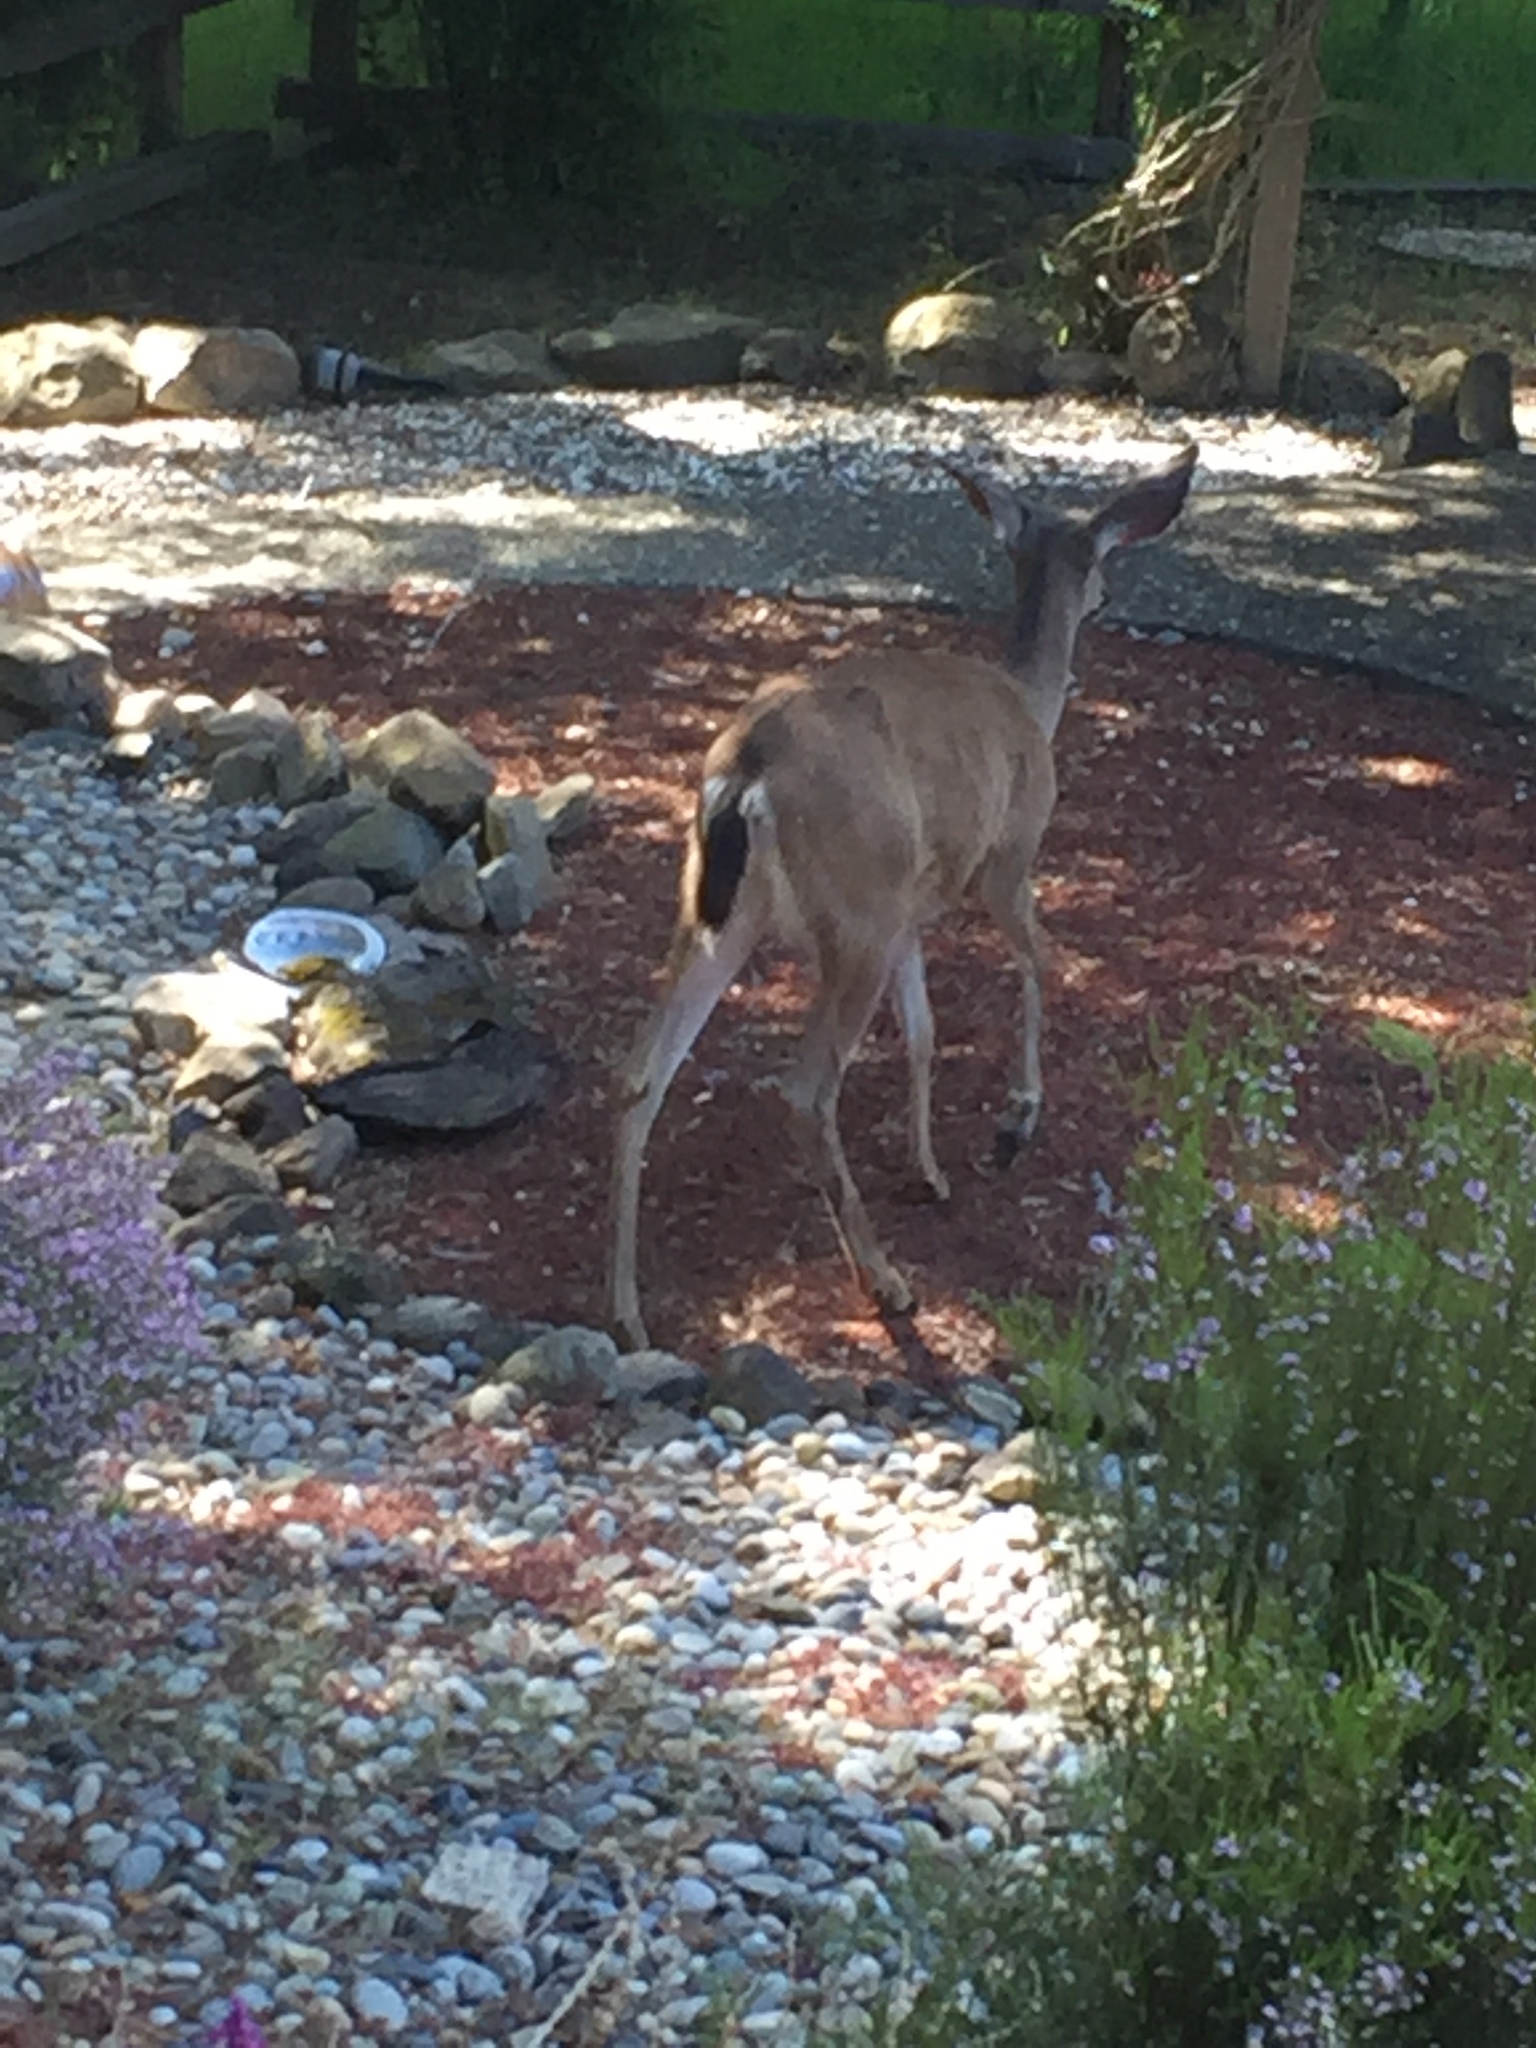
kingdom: Animalia
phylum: Chordata
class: Mammalia
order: Artiodactyla
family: Cervidae
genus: Odocoileus
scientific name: Odocoileus hemionus
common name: Mule deer
